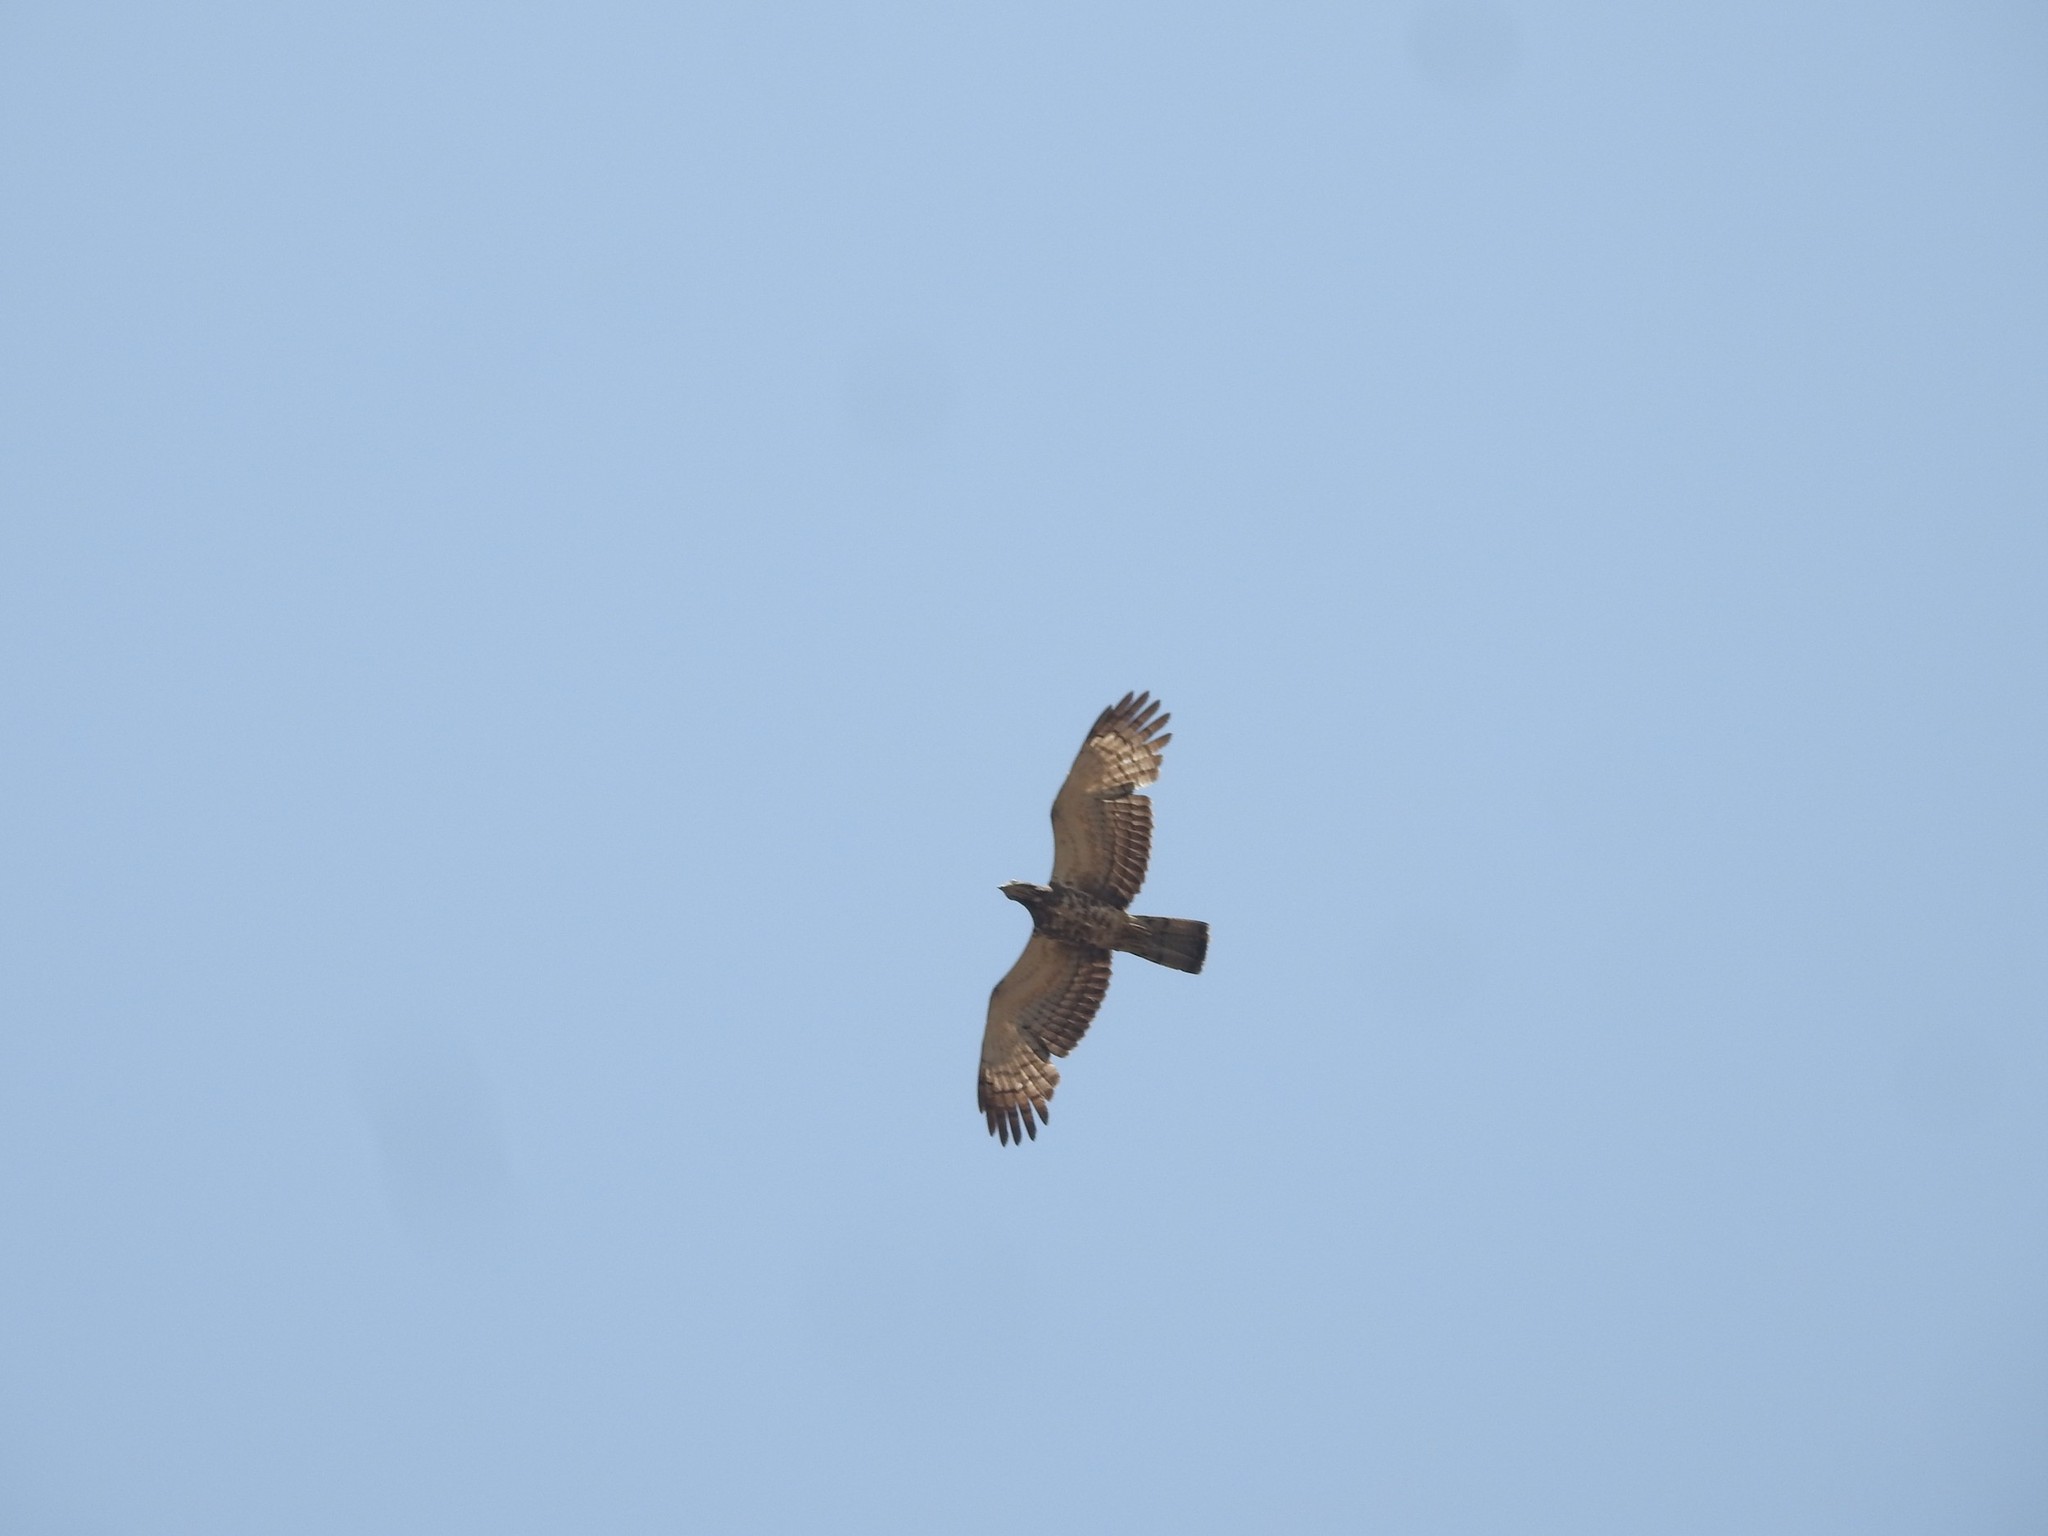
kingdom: Animalia
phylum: Chordata
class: Aves
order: Accipitriformes
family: Accipitridae
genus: Pernis
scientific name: Pernis ptilorhynchus
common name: Crested honey buzzard
